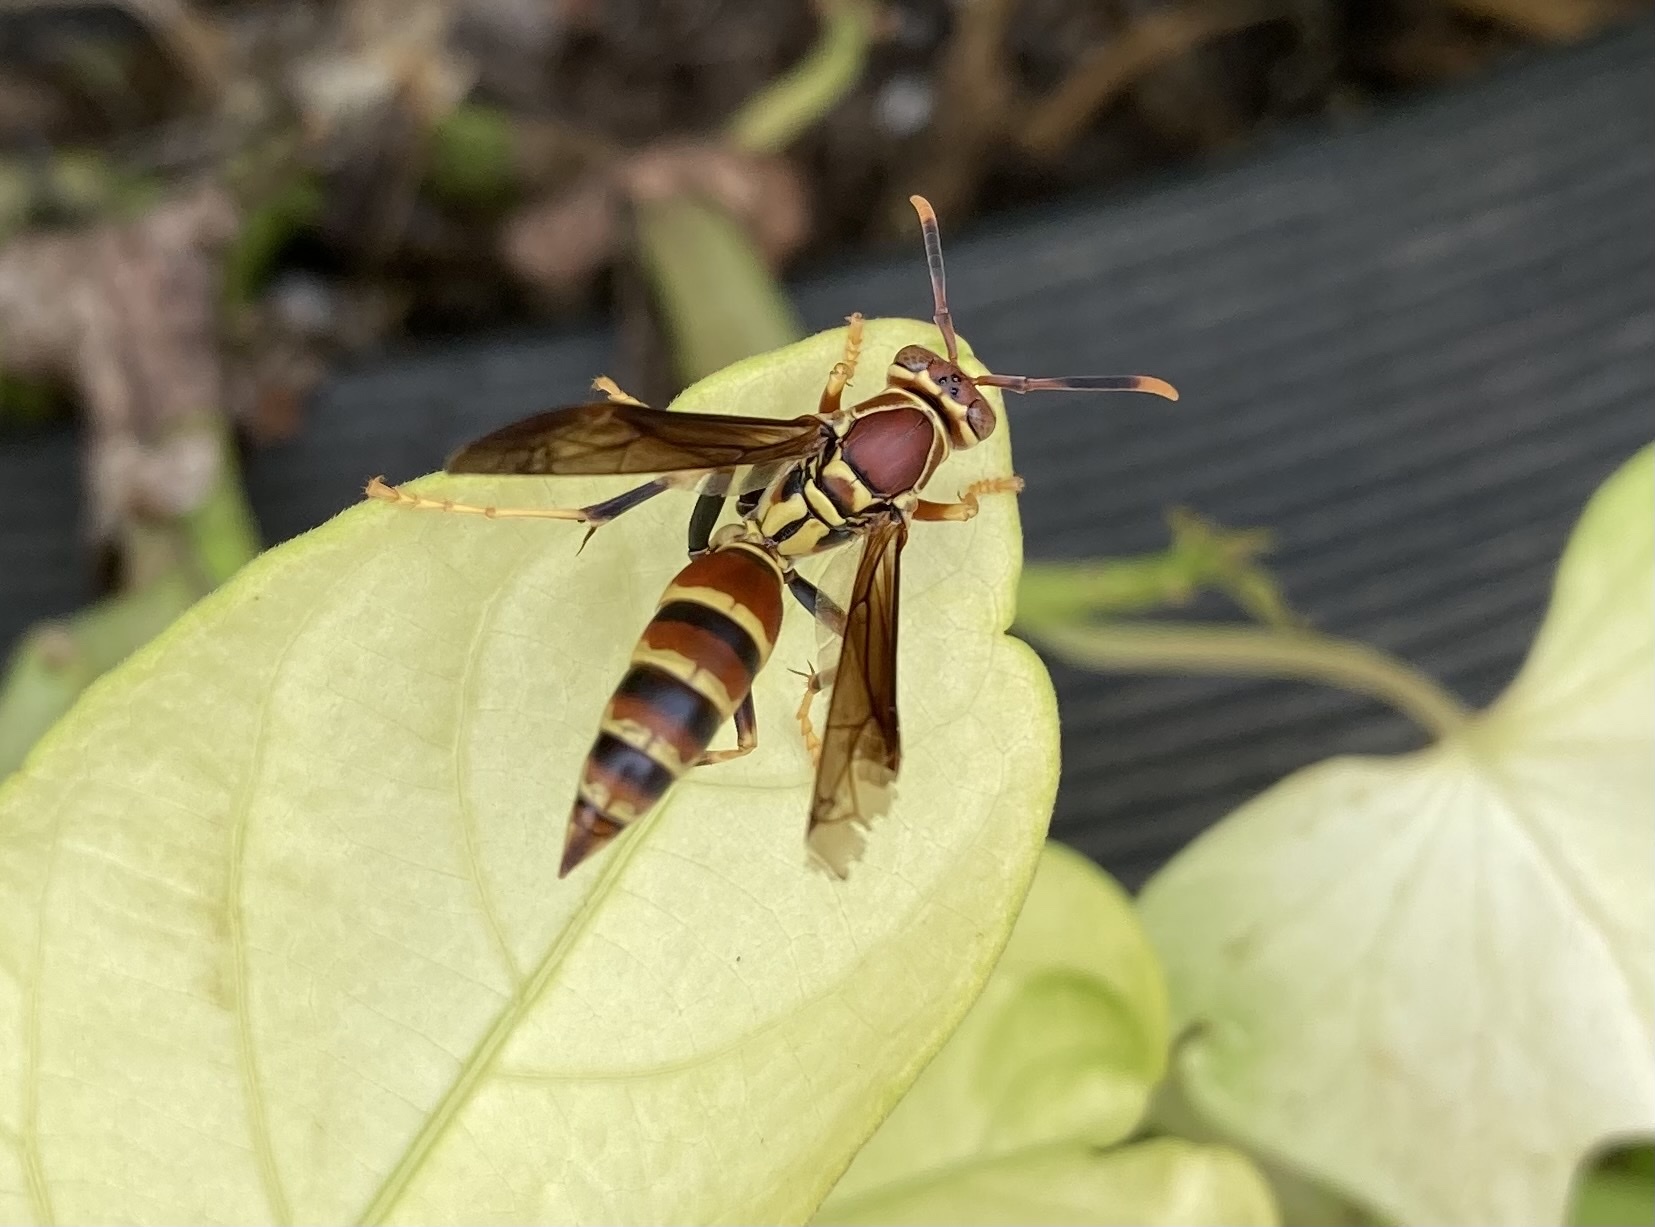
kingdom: Animalia
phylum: Arthropoda
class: Insecta
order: Hymenoptera
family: Eumenidae
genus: Polistes
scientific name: Polistes exclamans
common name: Paper wasp
